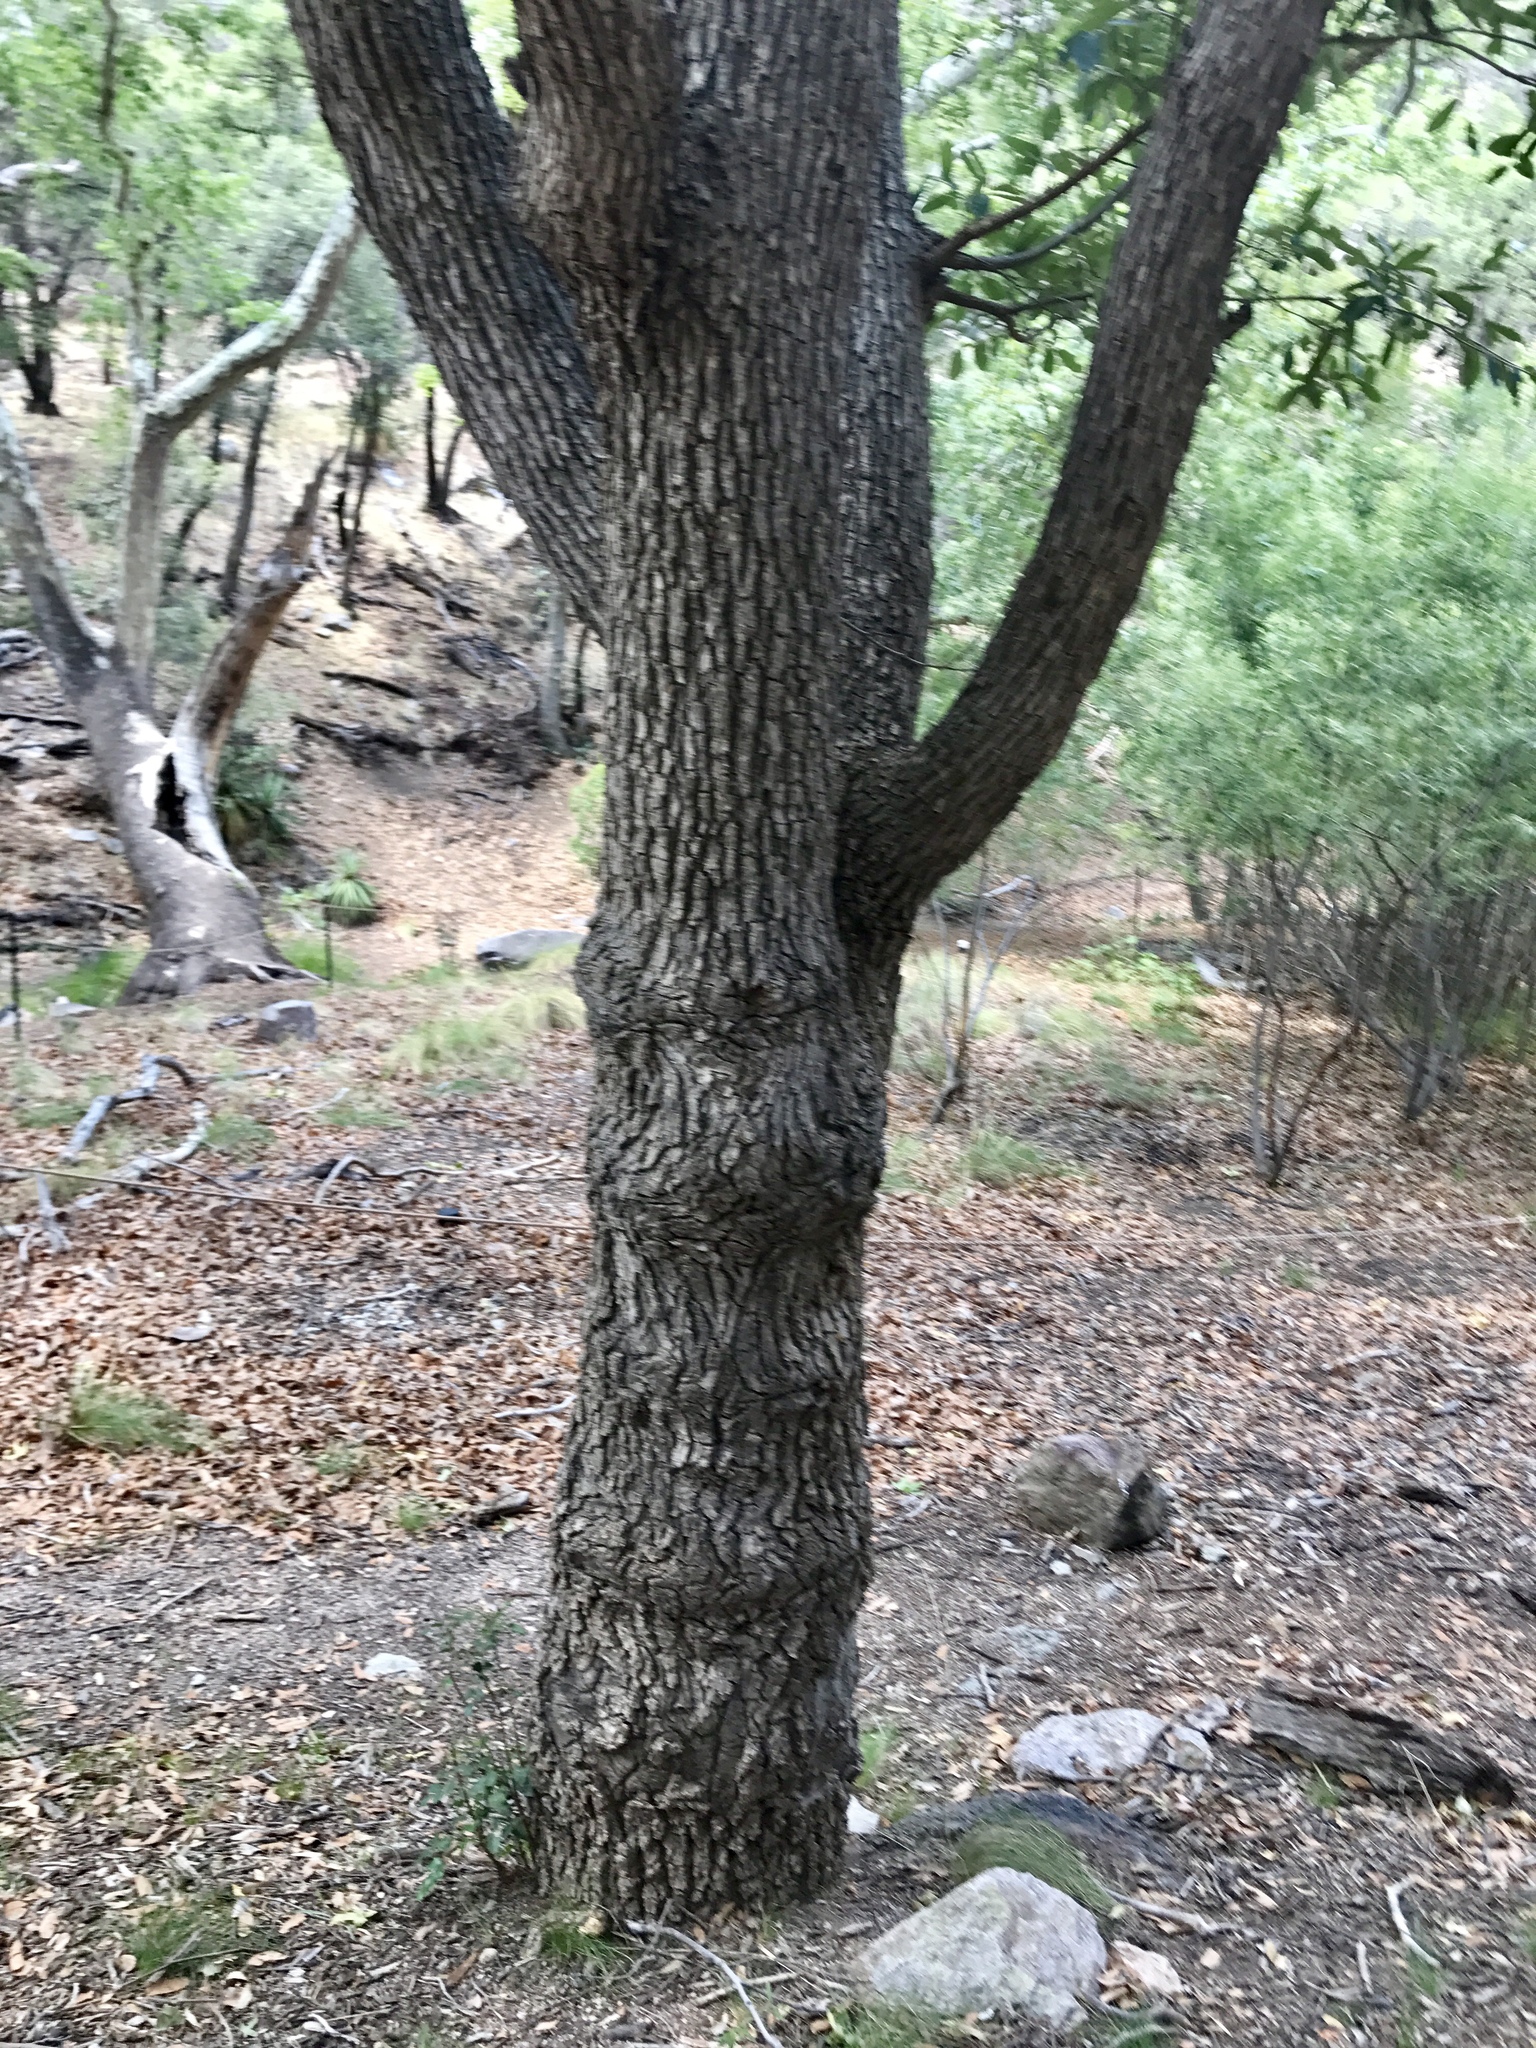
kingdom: Plantae
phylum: Tracheophyta
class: Magnoliopsida
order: Fagales
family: Fagaceae
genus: Quercus
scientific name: Quercus arizonica
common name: Arizona white oak
